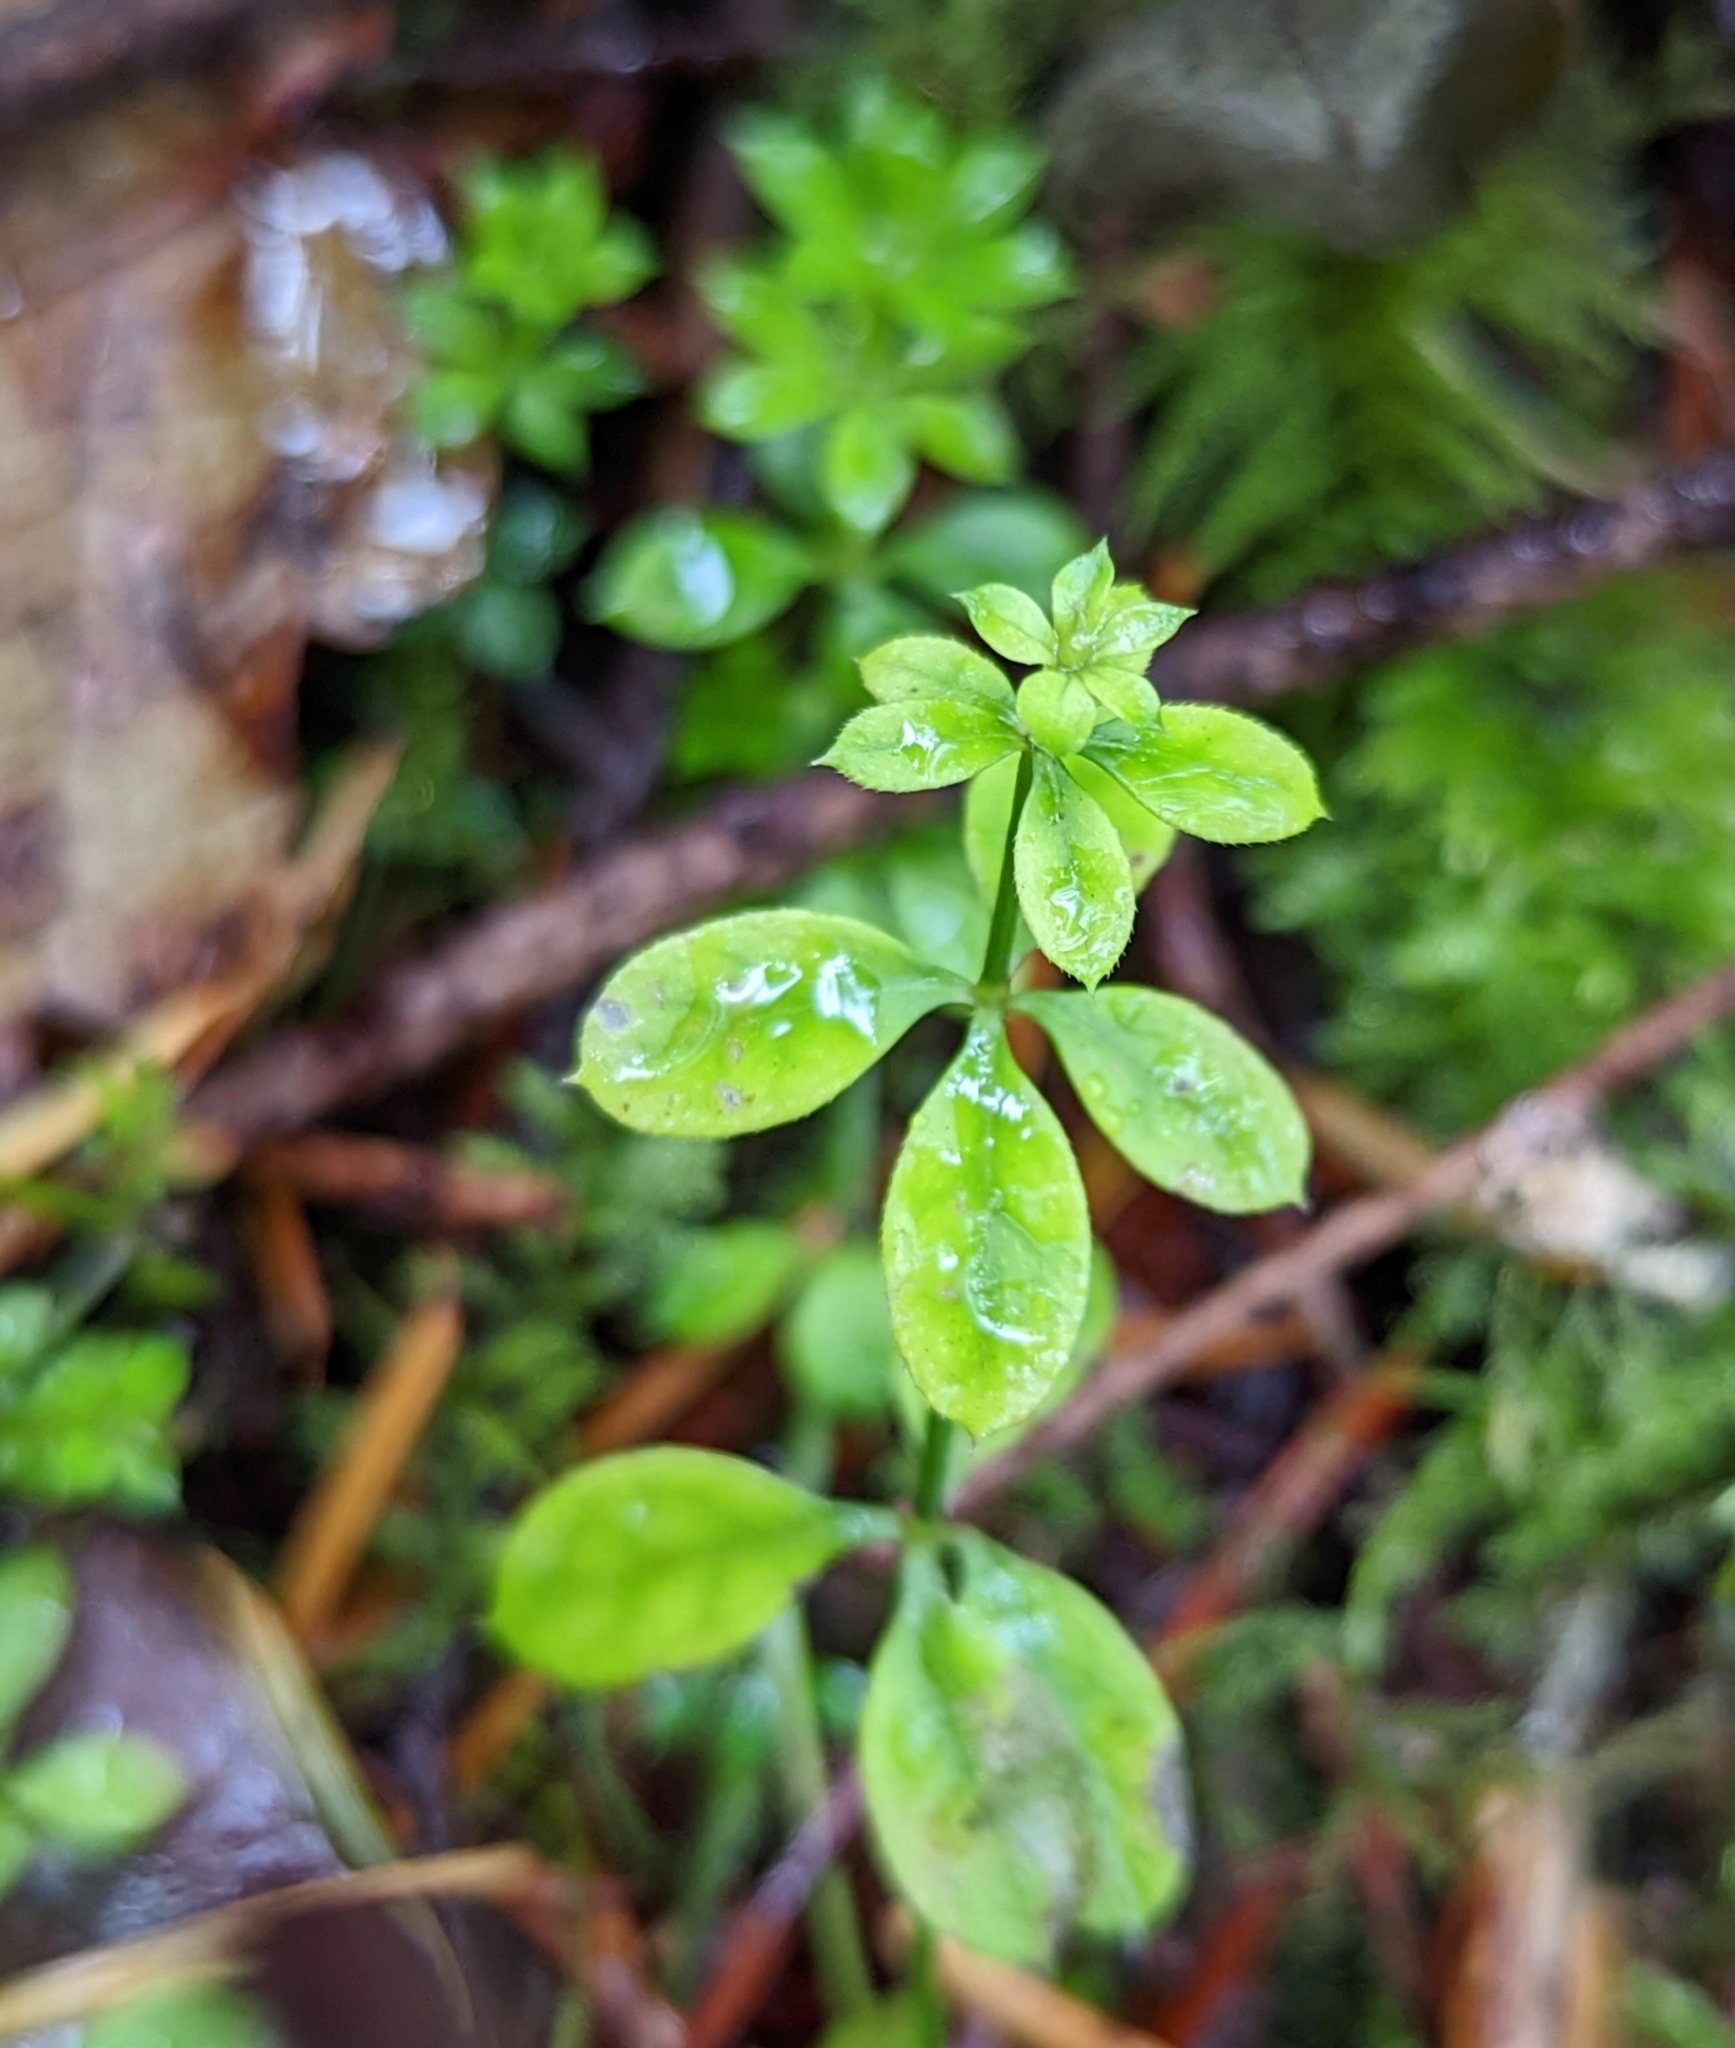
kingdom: Plantae
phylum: Tracheophyta
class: Magnoliopsida
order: Gentianales
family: Rubiaceae
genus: Galium
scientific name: Galium triflorum
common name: Fragrant bedstraw
